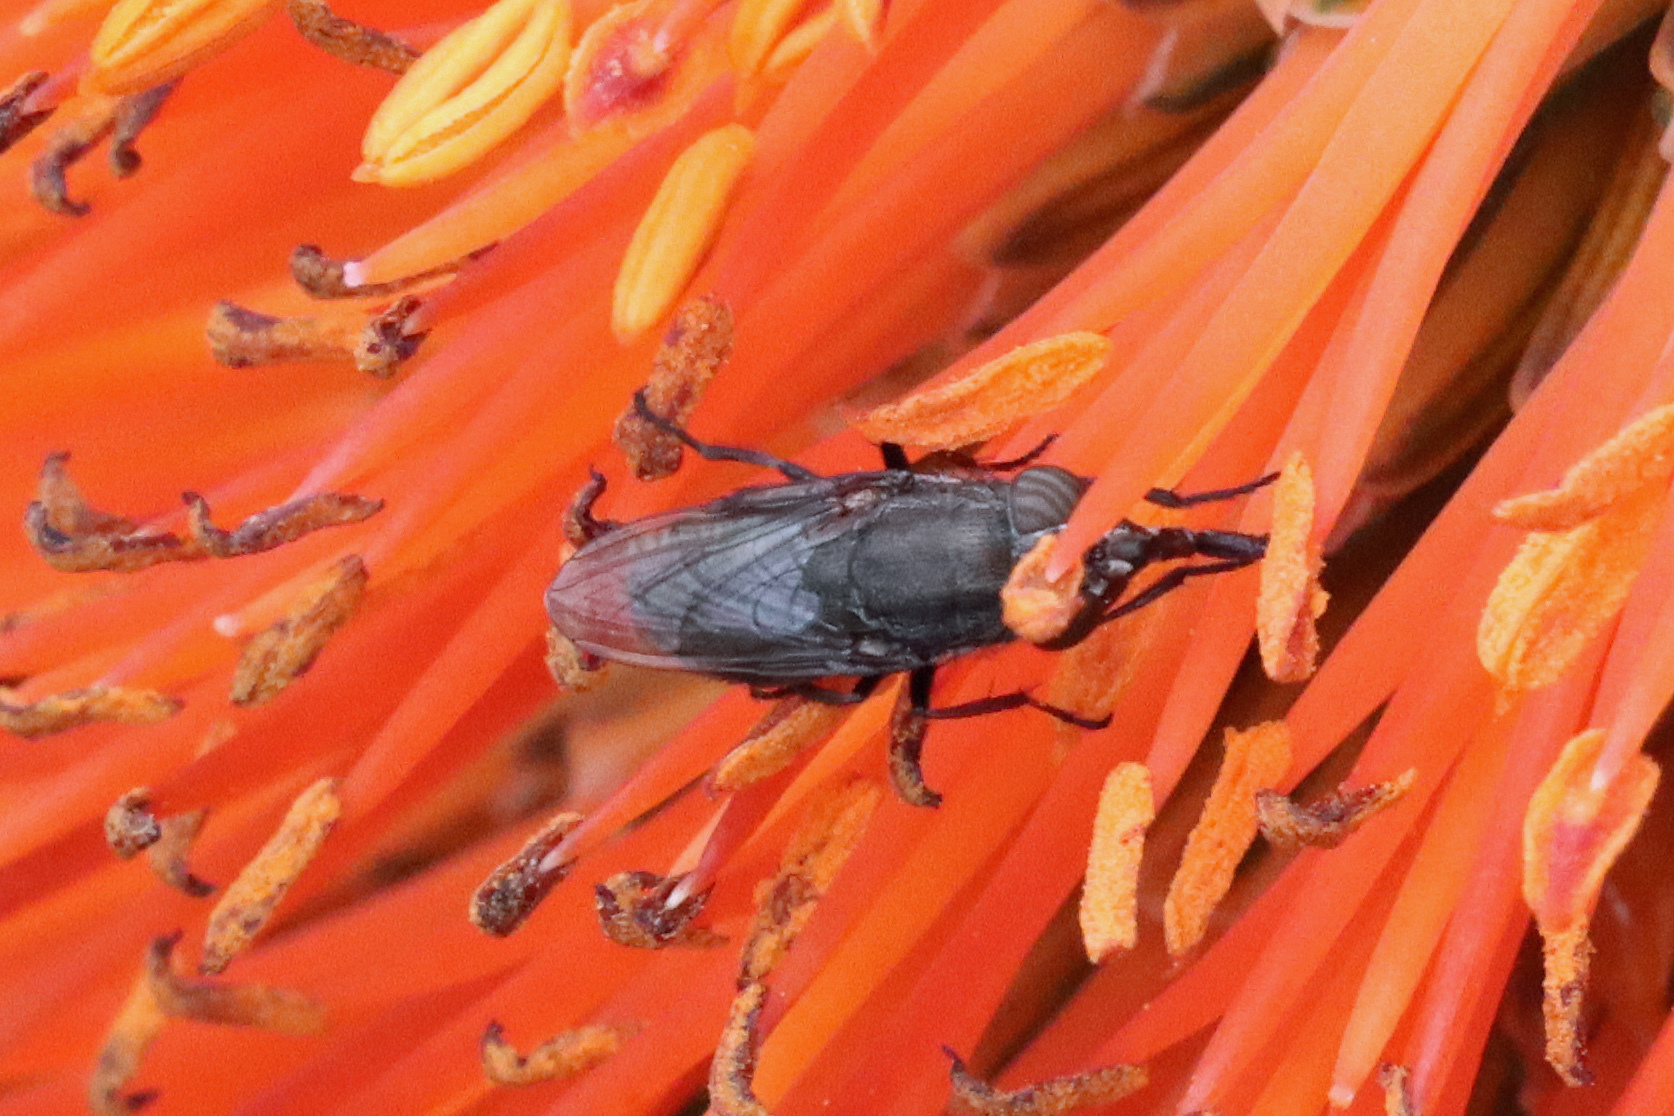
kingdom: Animalia
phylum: Arthropoda
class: Insecta
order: Diptera
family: Calliphoridae
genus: Stomorhina
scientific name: Stomorhina lunata
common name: Locust blowfly
